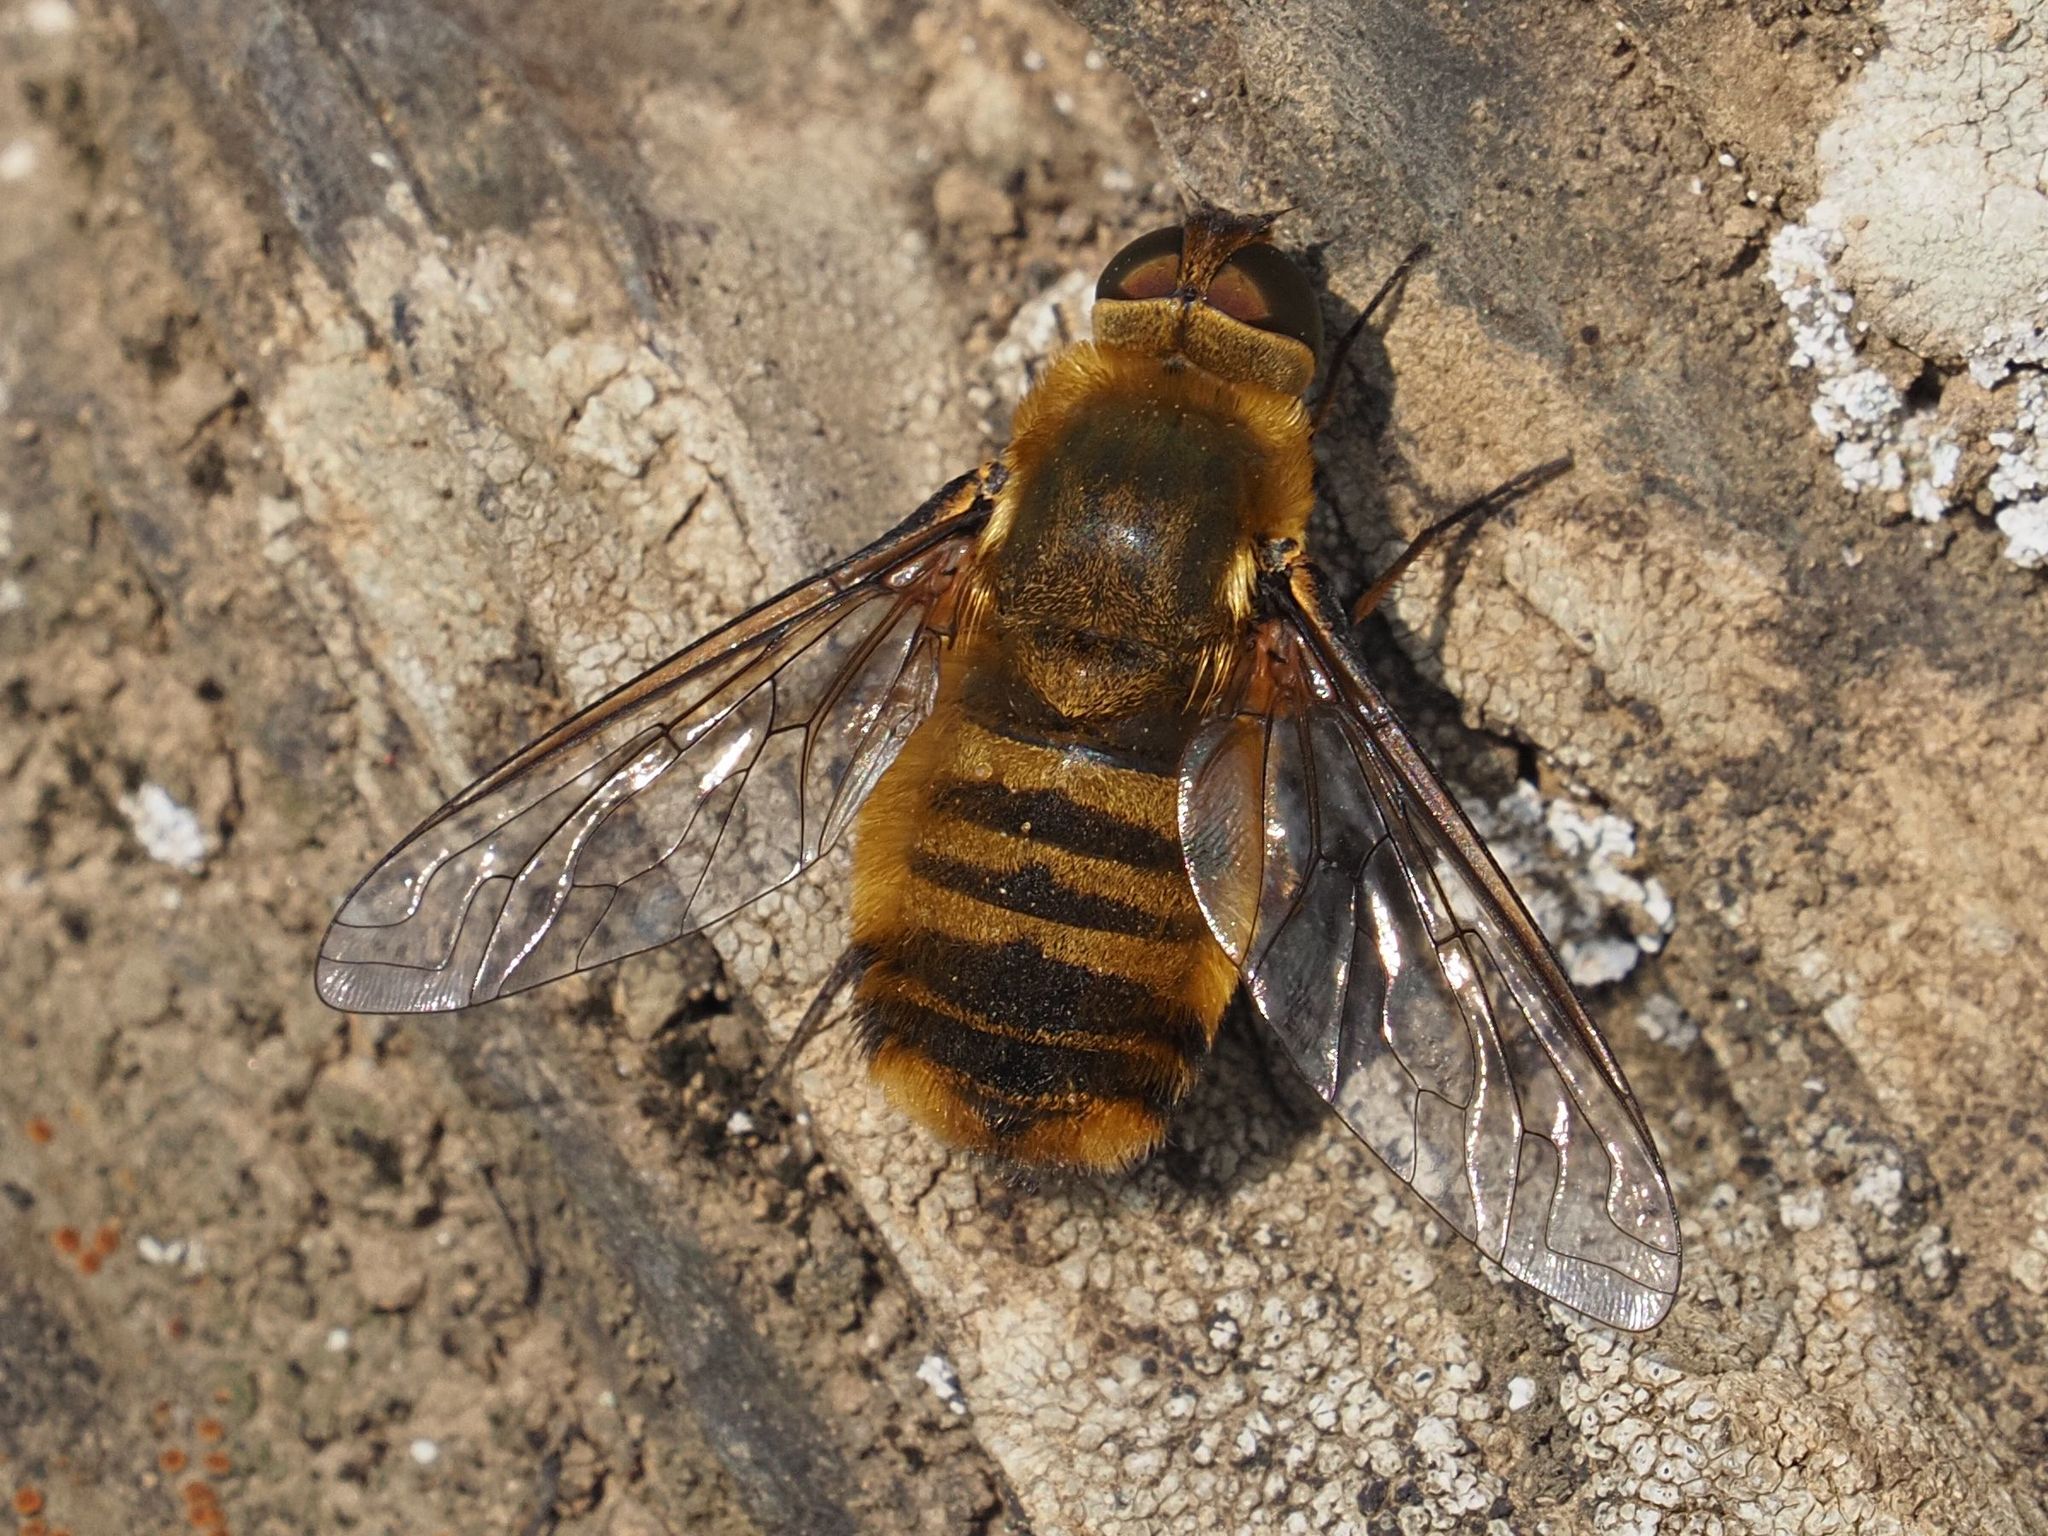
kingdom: Animalia
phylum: Arthropoda
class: Insecta
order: Diptera
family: Bombyliidae
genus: Villa
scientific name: Villa hottentotta
